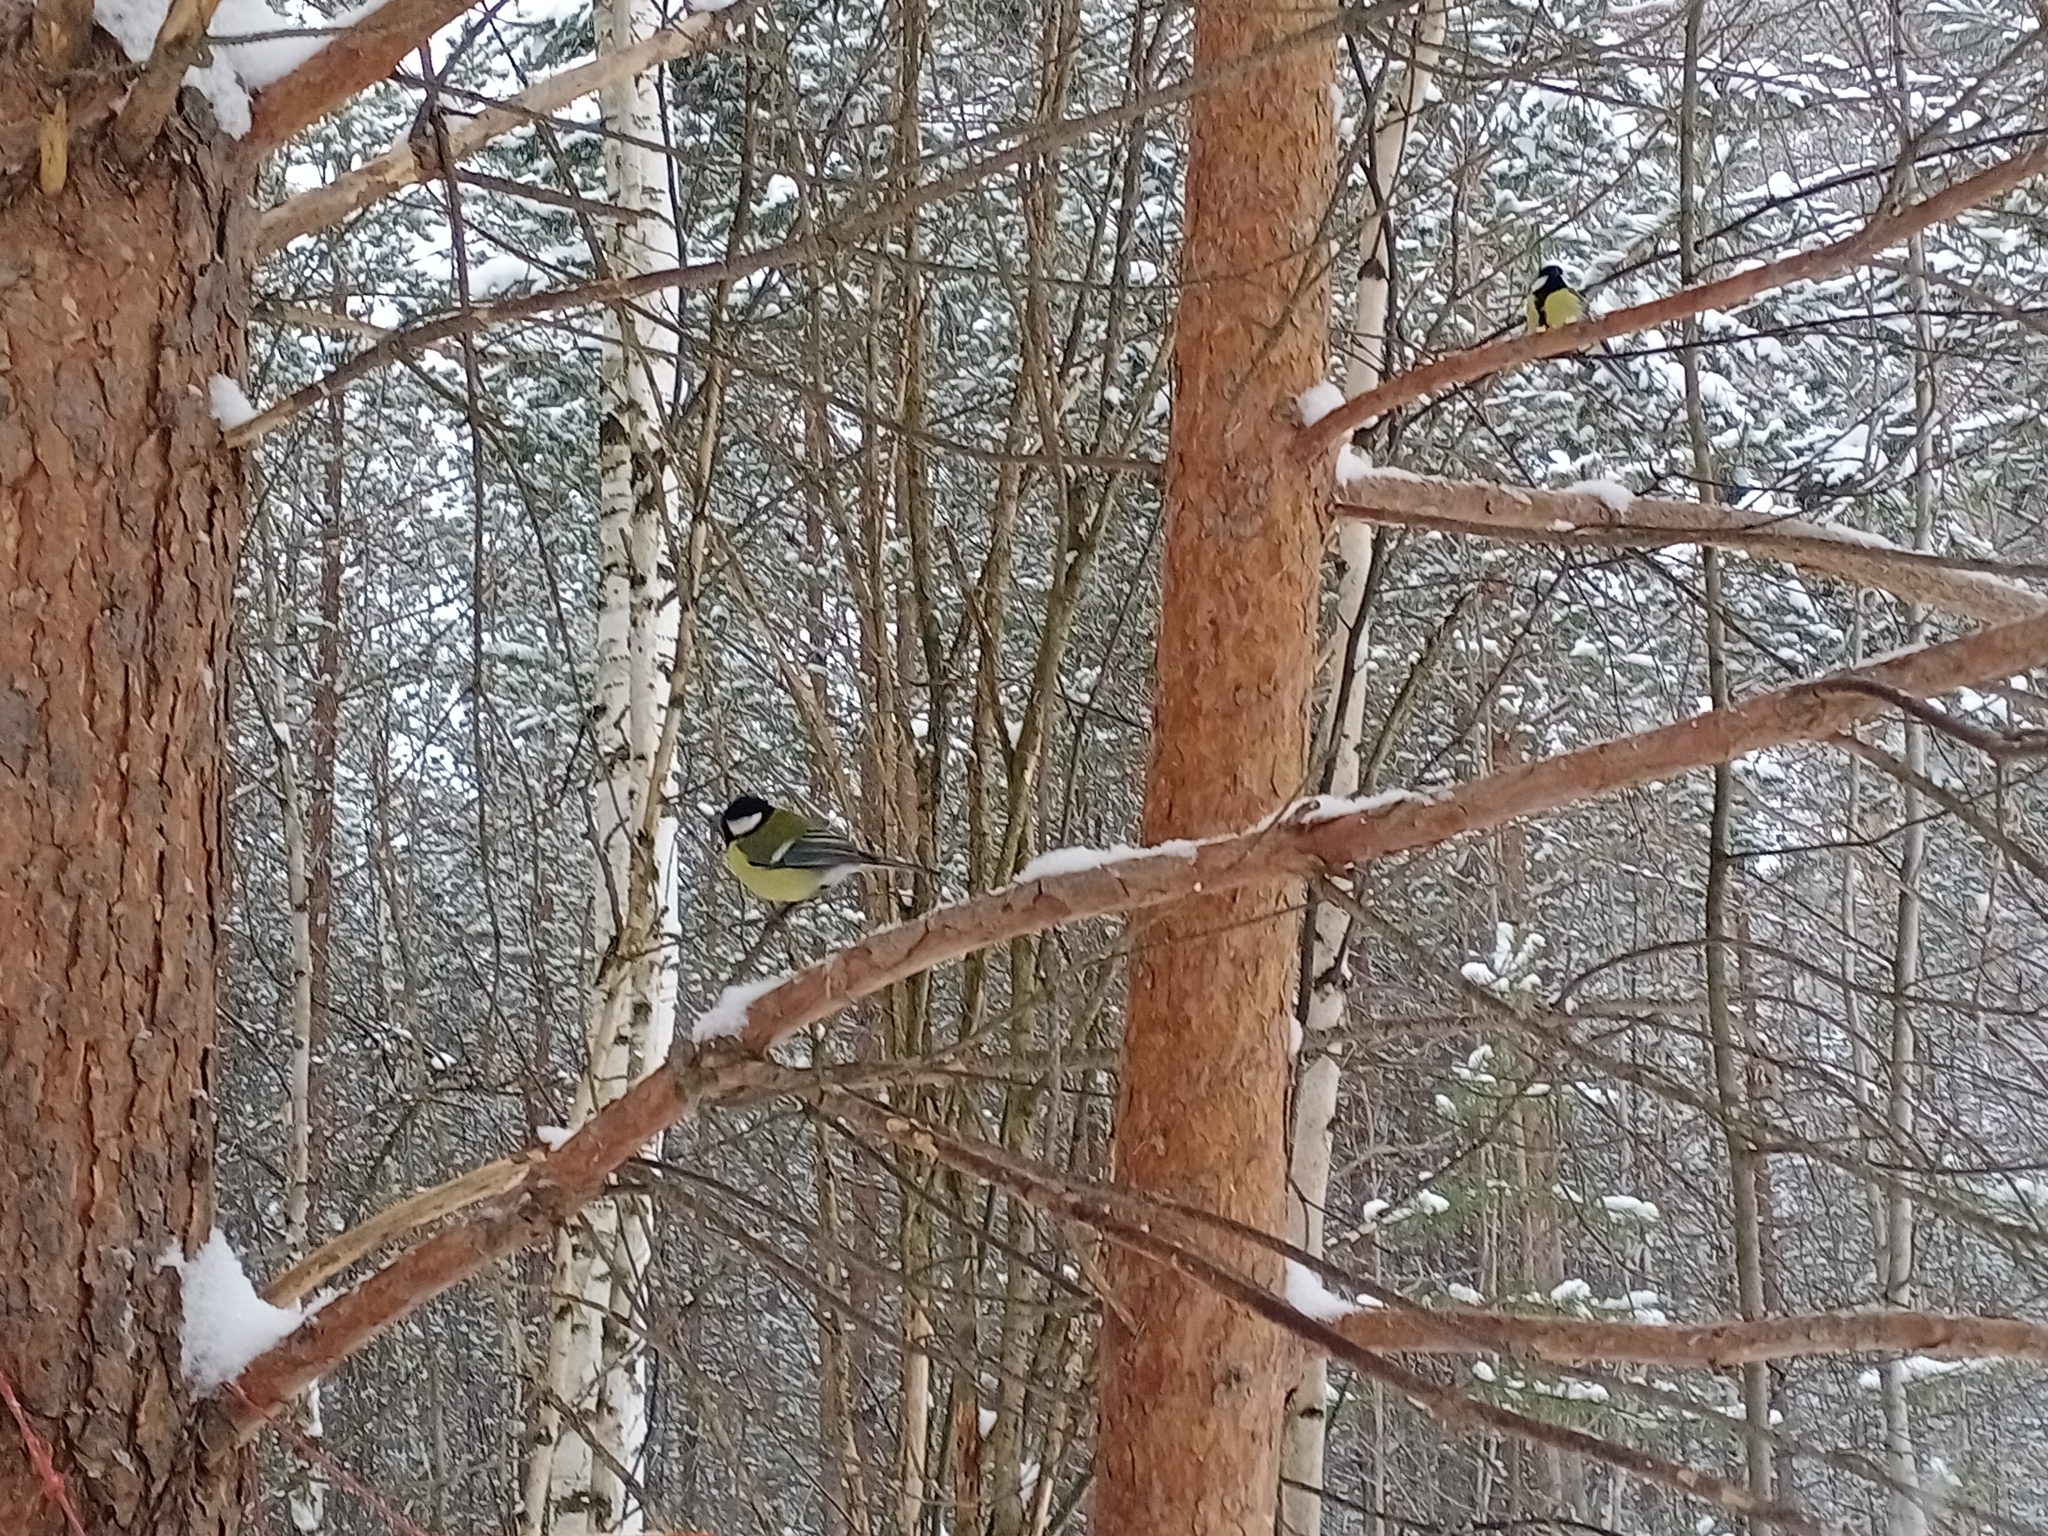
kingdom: Animalia
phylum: Chordata
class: Aves
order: Passeriformes
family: Paridae
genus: Parus
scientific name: Parus major
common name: Great tit
